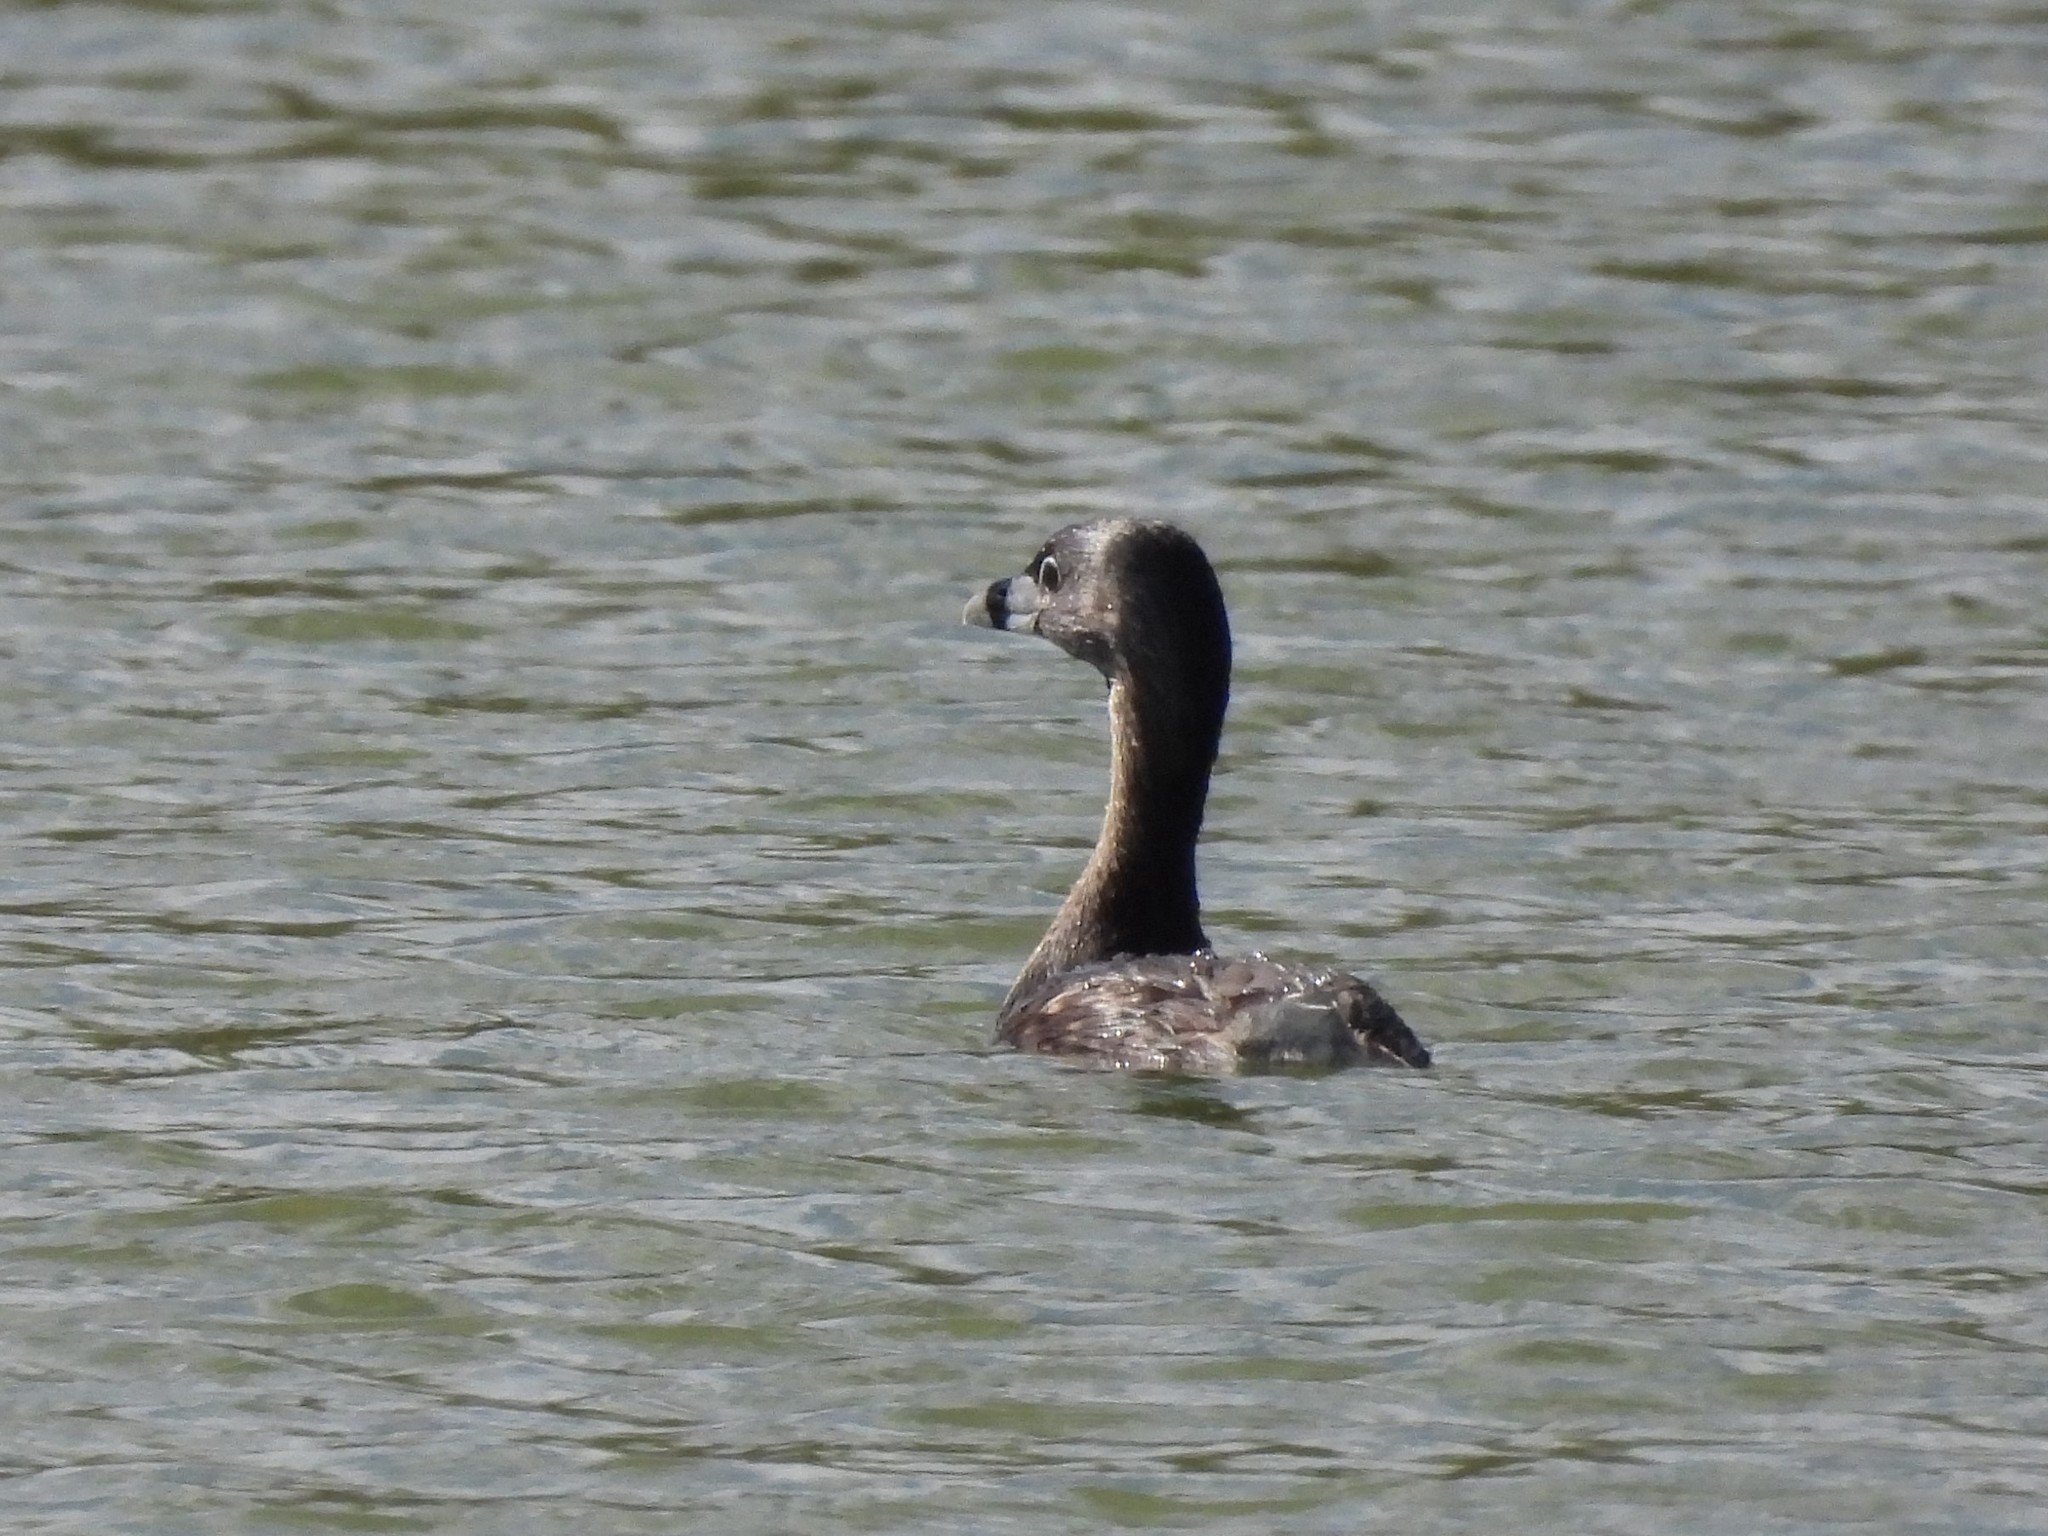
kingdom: Animalia
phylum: Chordata
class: Aves
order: Podicipediformes
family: Podicipedidae
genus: Podilymbus
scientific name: Podilymbus podiceps
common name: Pied-billed grebe
